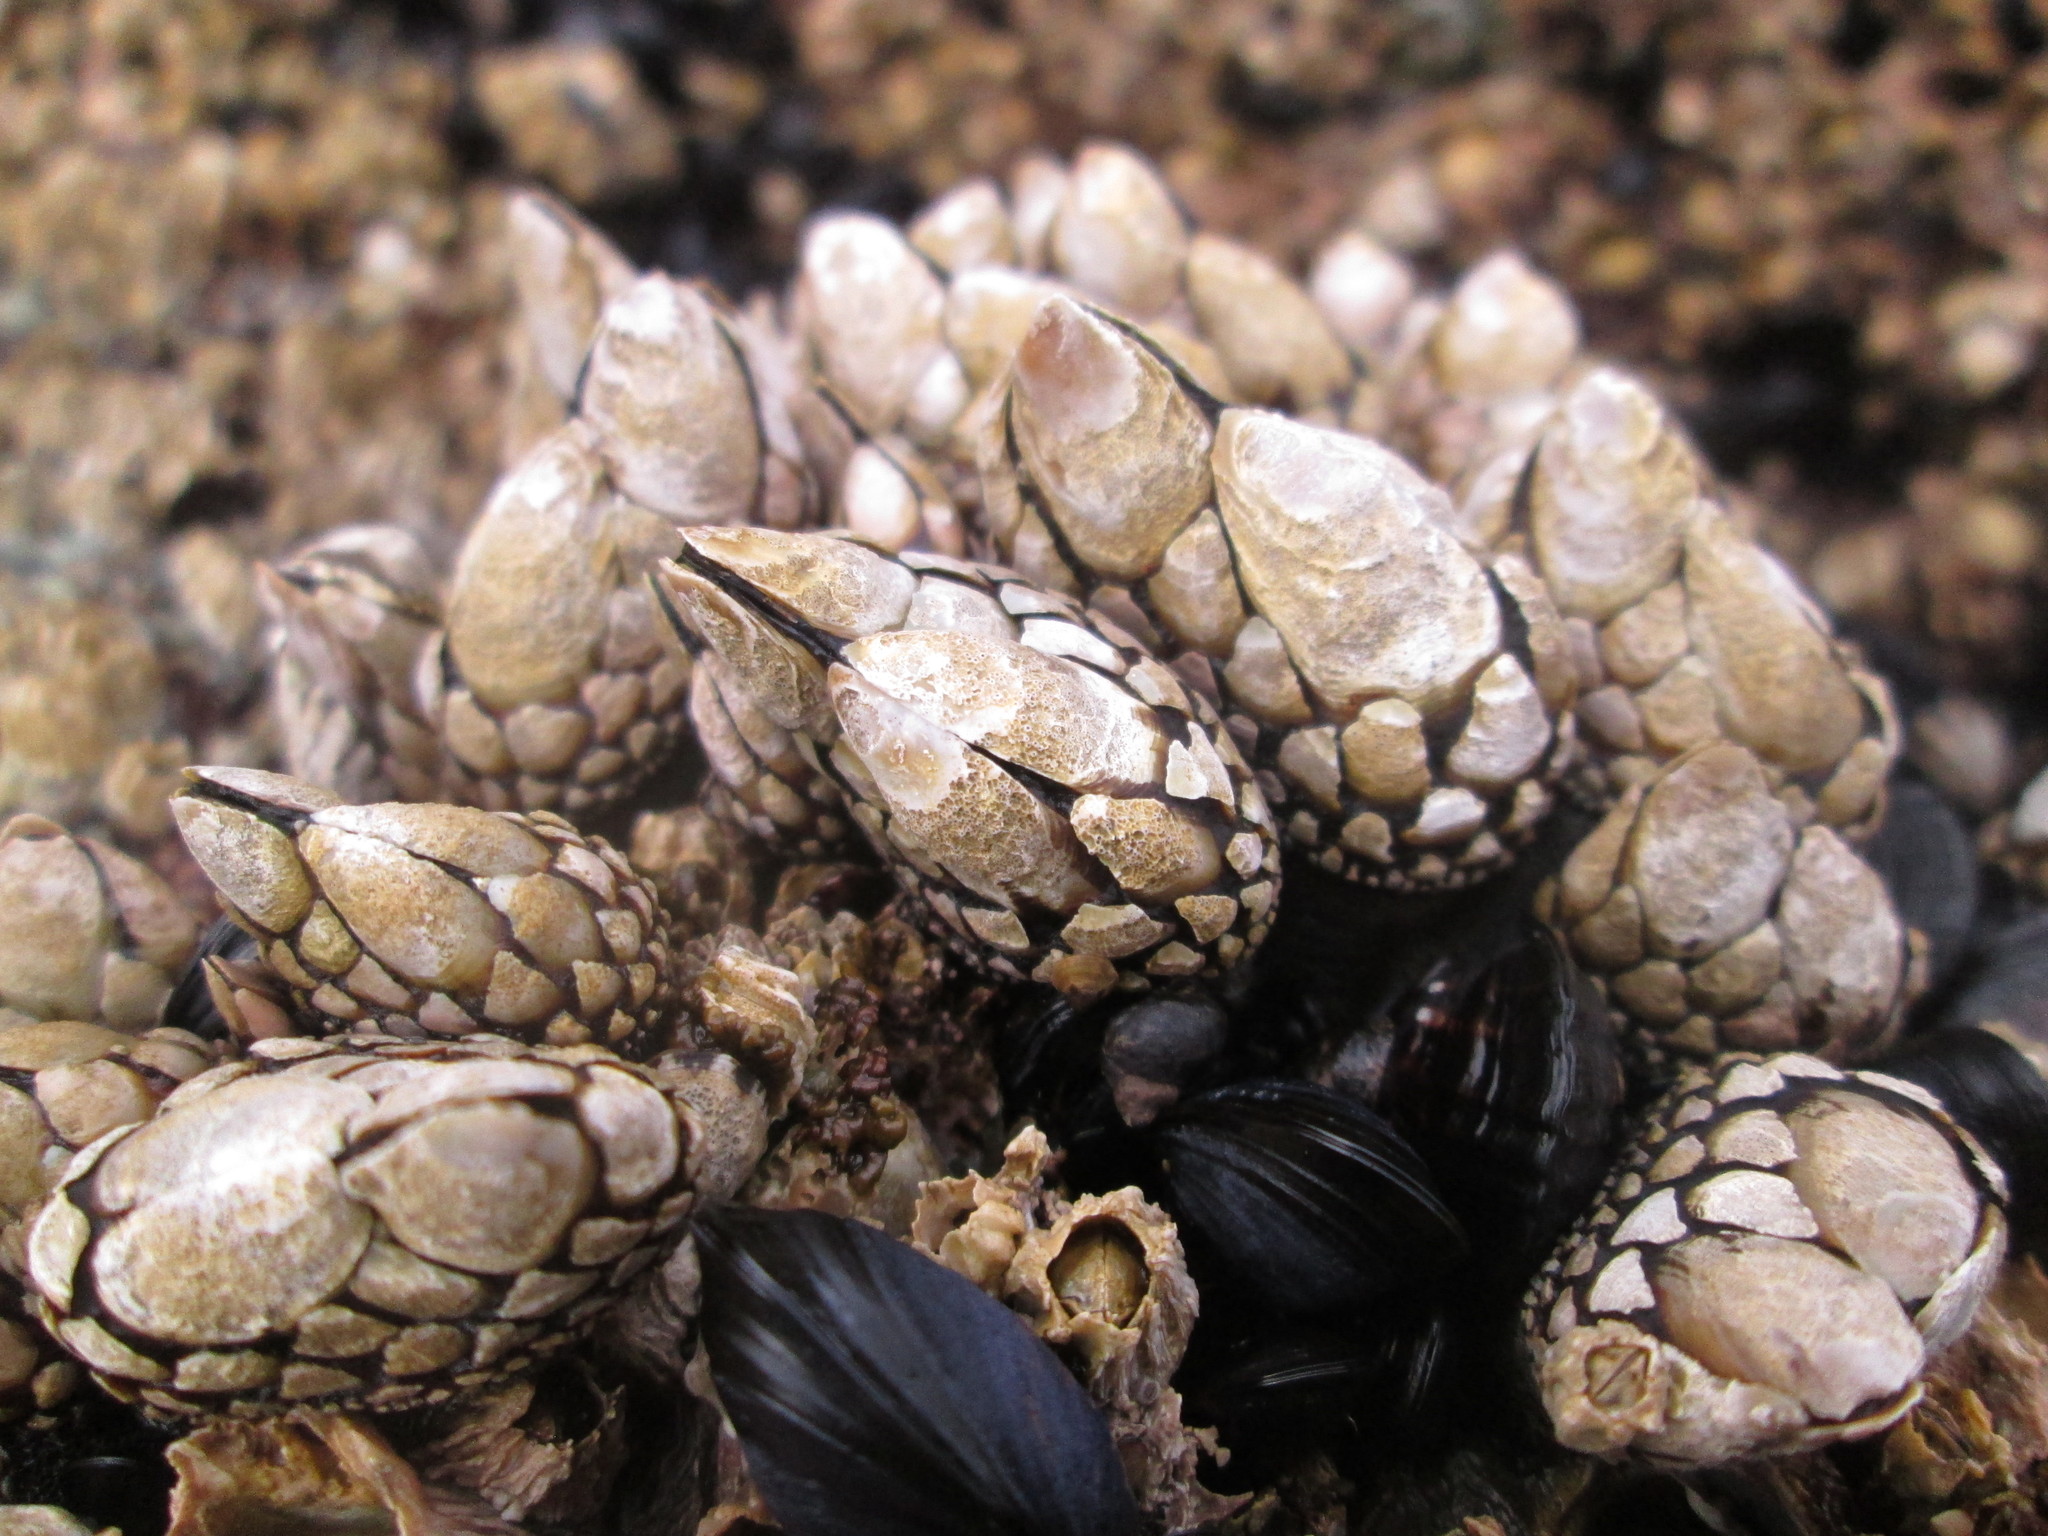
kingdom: Animalia
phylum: Arthropoda
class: Maxillopoda
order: Pedunculata
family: Pollicipedidae
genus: Pollicipes
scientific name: Pollicipes polymerus
